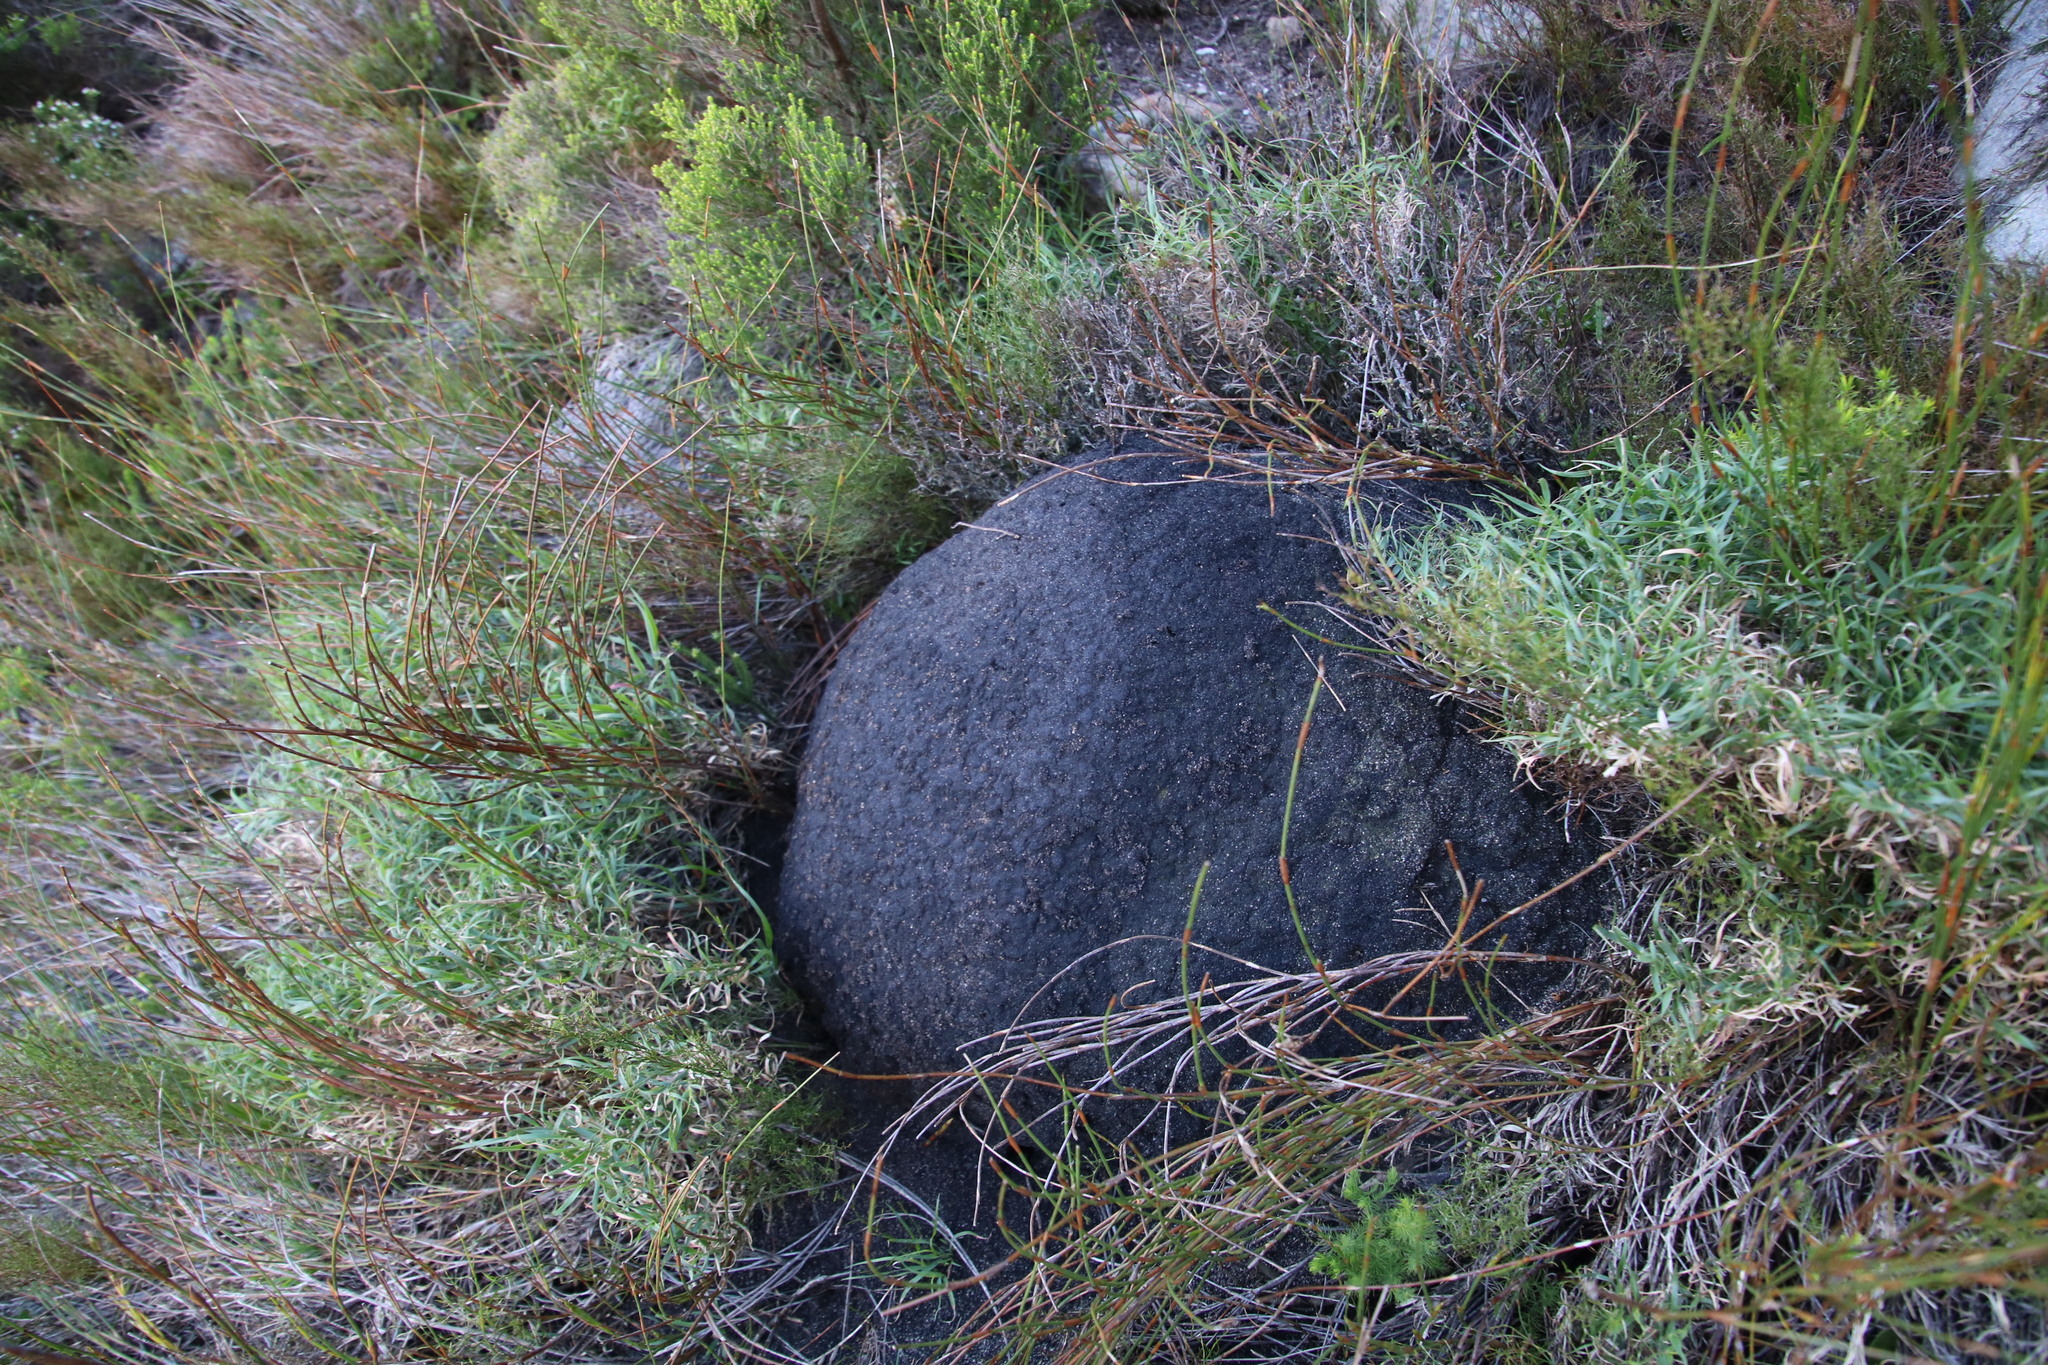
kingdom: Animalia
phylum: Arthropoda
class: Insecta
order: Blattodea
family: Termitidae
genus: Amitermes
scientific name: Amitermes hastatus
